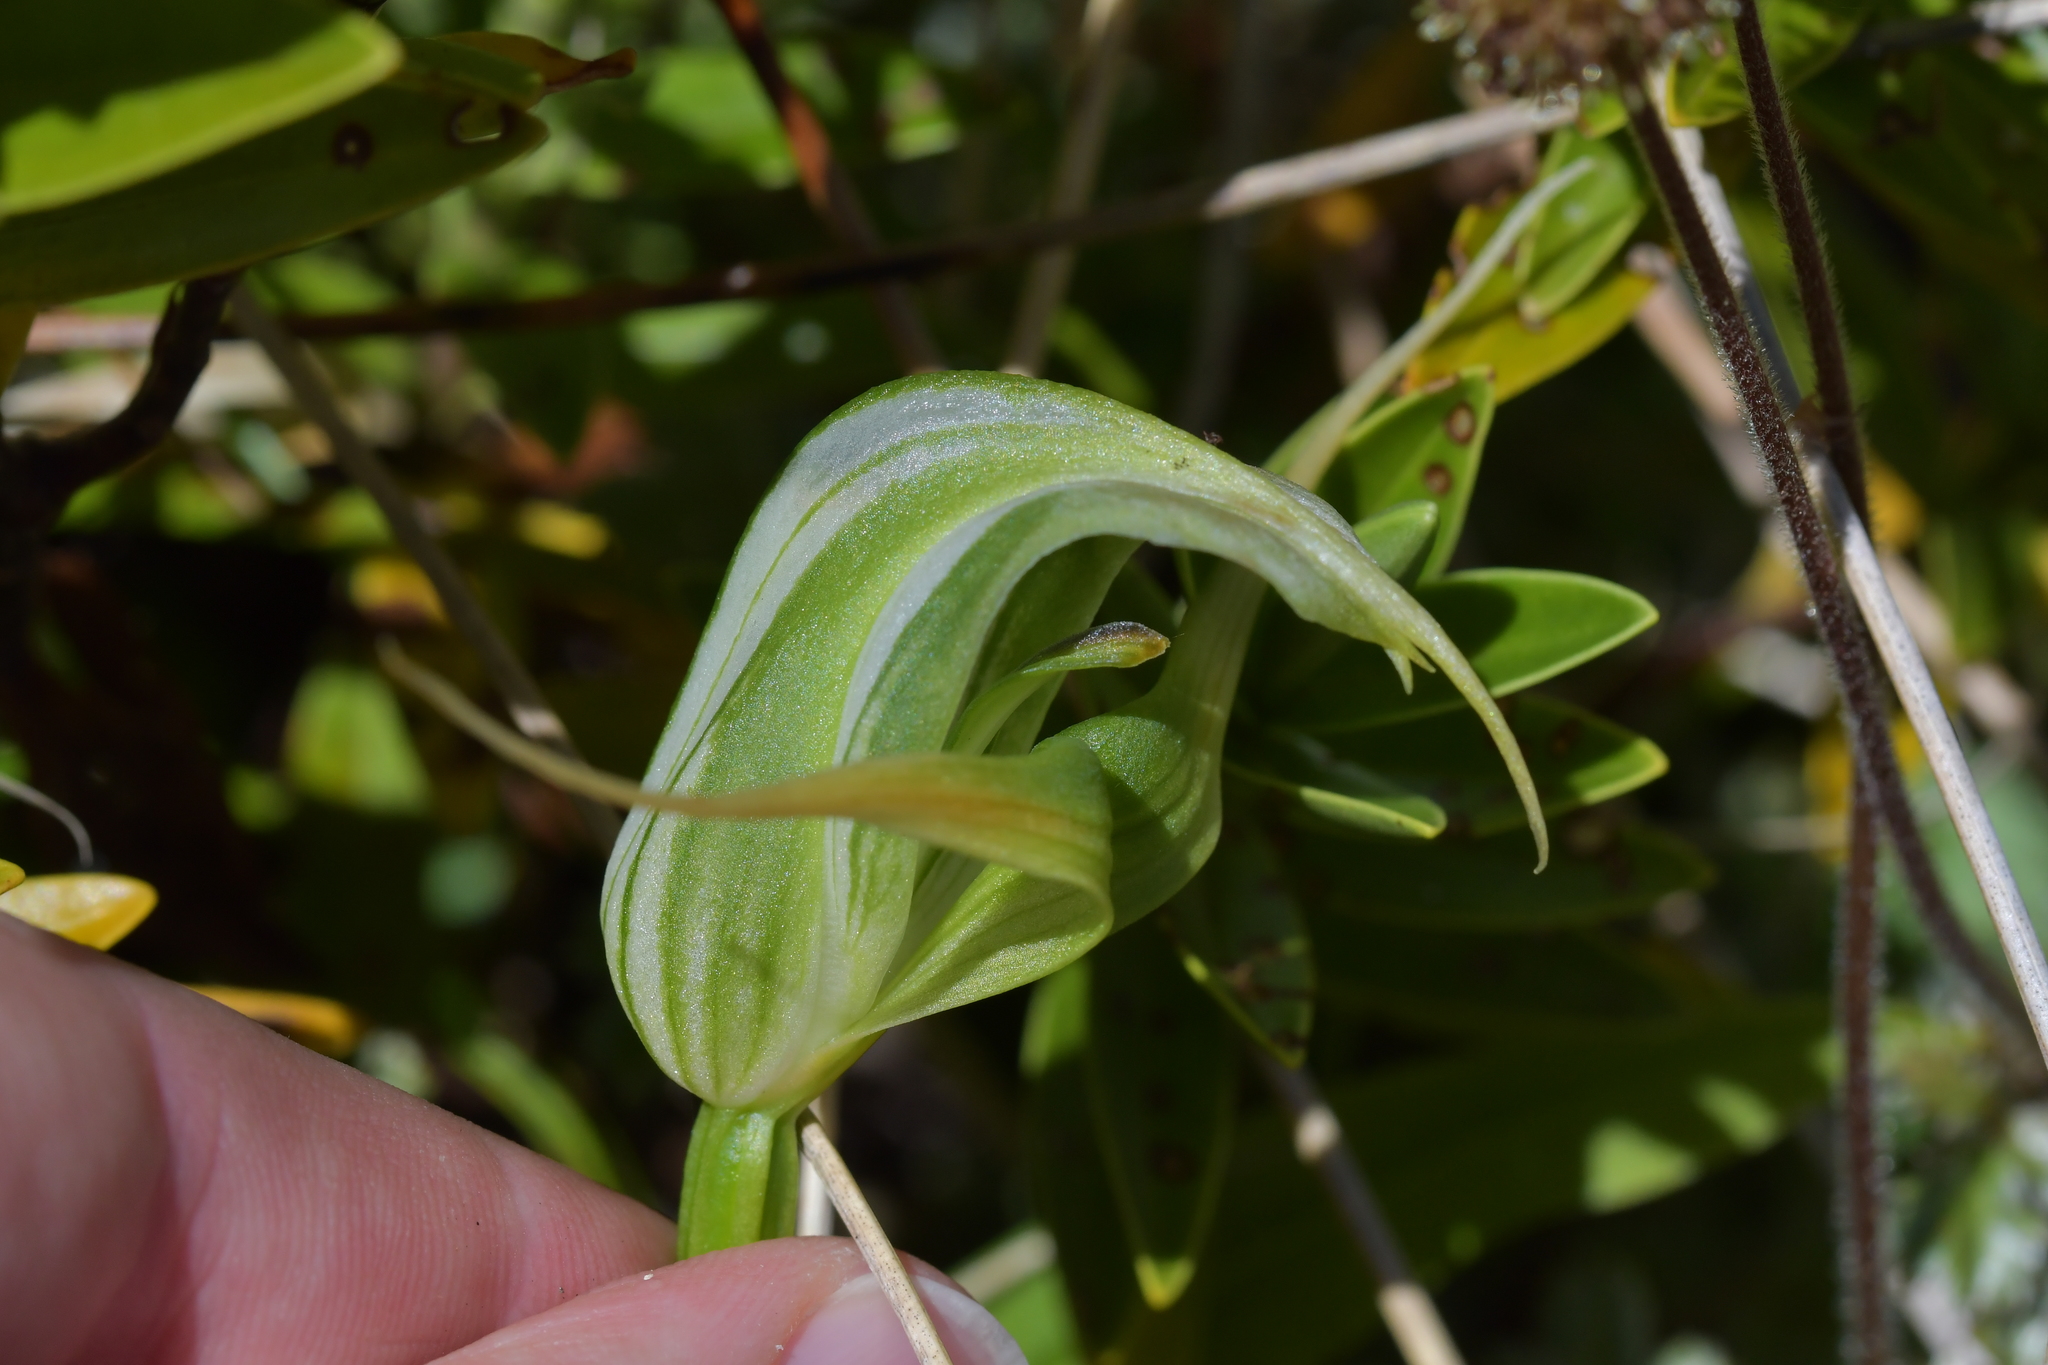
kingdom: Plantae
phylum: Tracheophyta
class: Liliopsida
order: Asparagales
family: Orchidaceae
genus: Pterostylis
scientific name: Pterostylis australis
